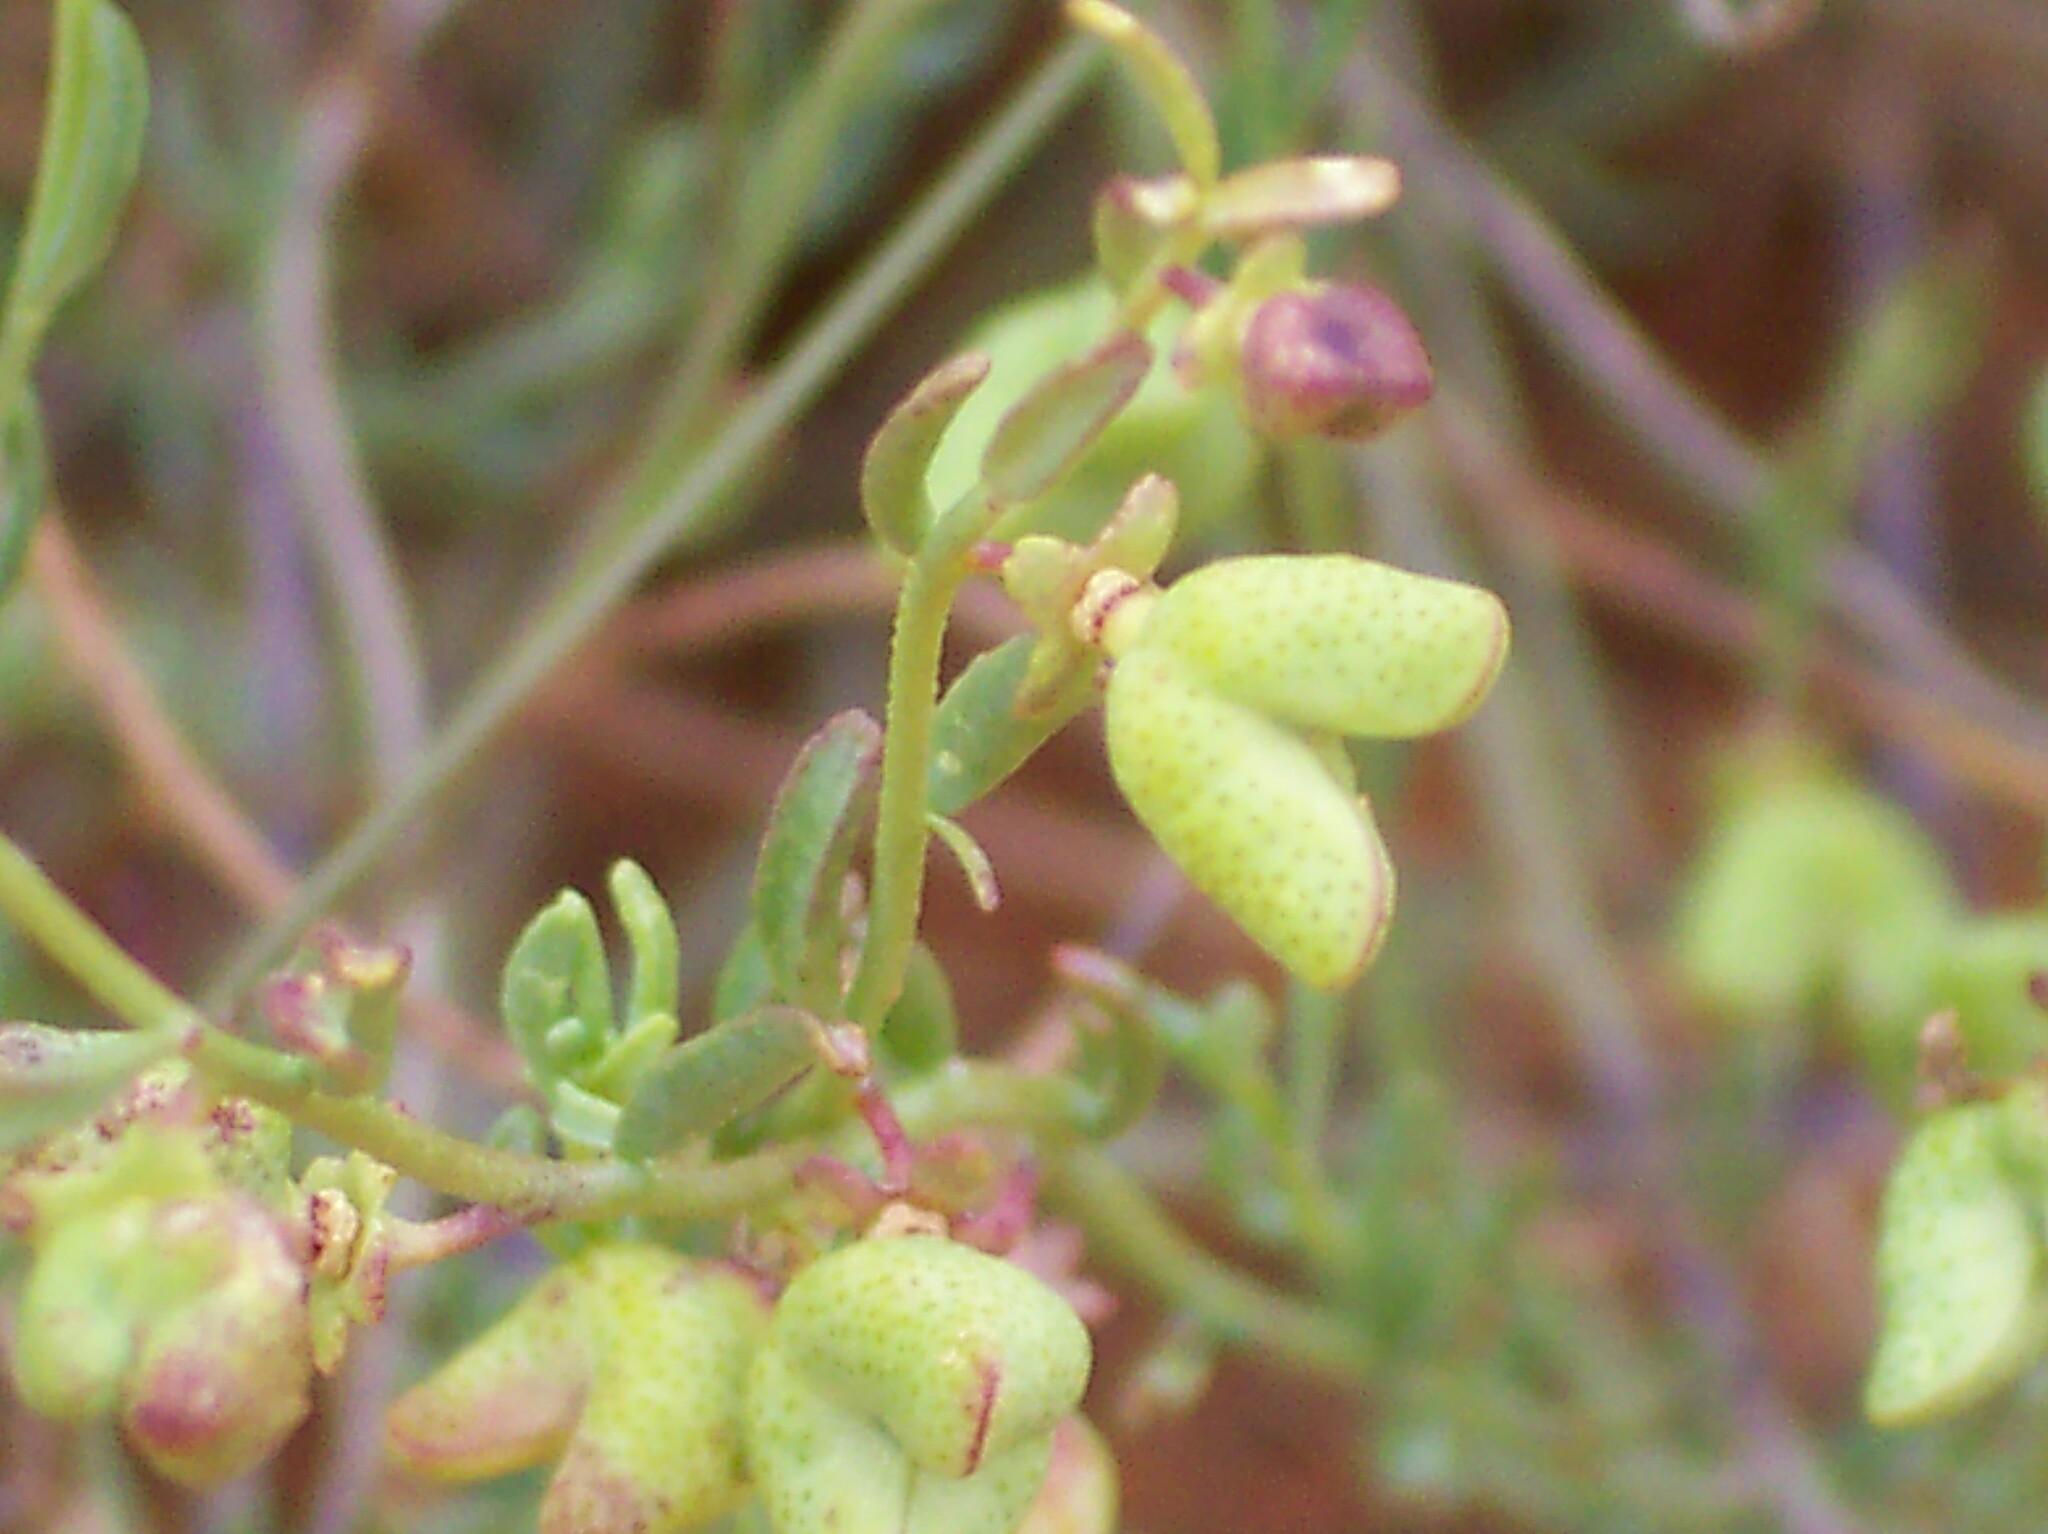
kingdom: Plantae
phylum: Tracheophyta
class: Magnoliopsida
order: Sapindales
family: Rutaceae
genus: Thamnosma
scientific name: Thamnosma texana
